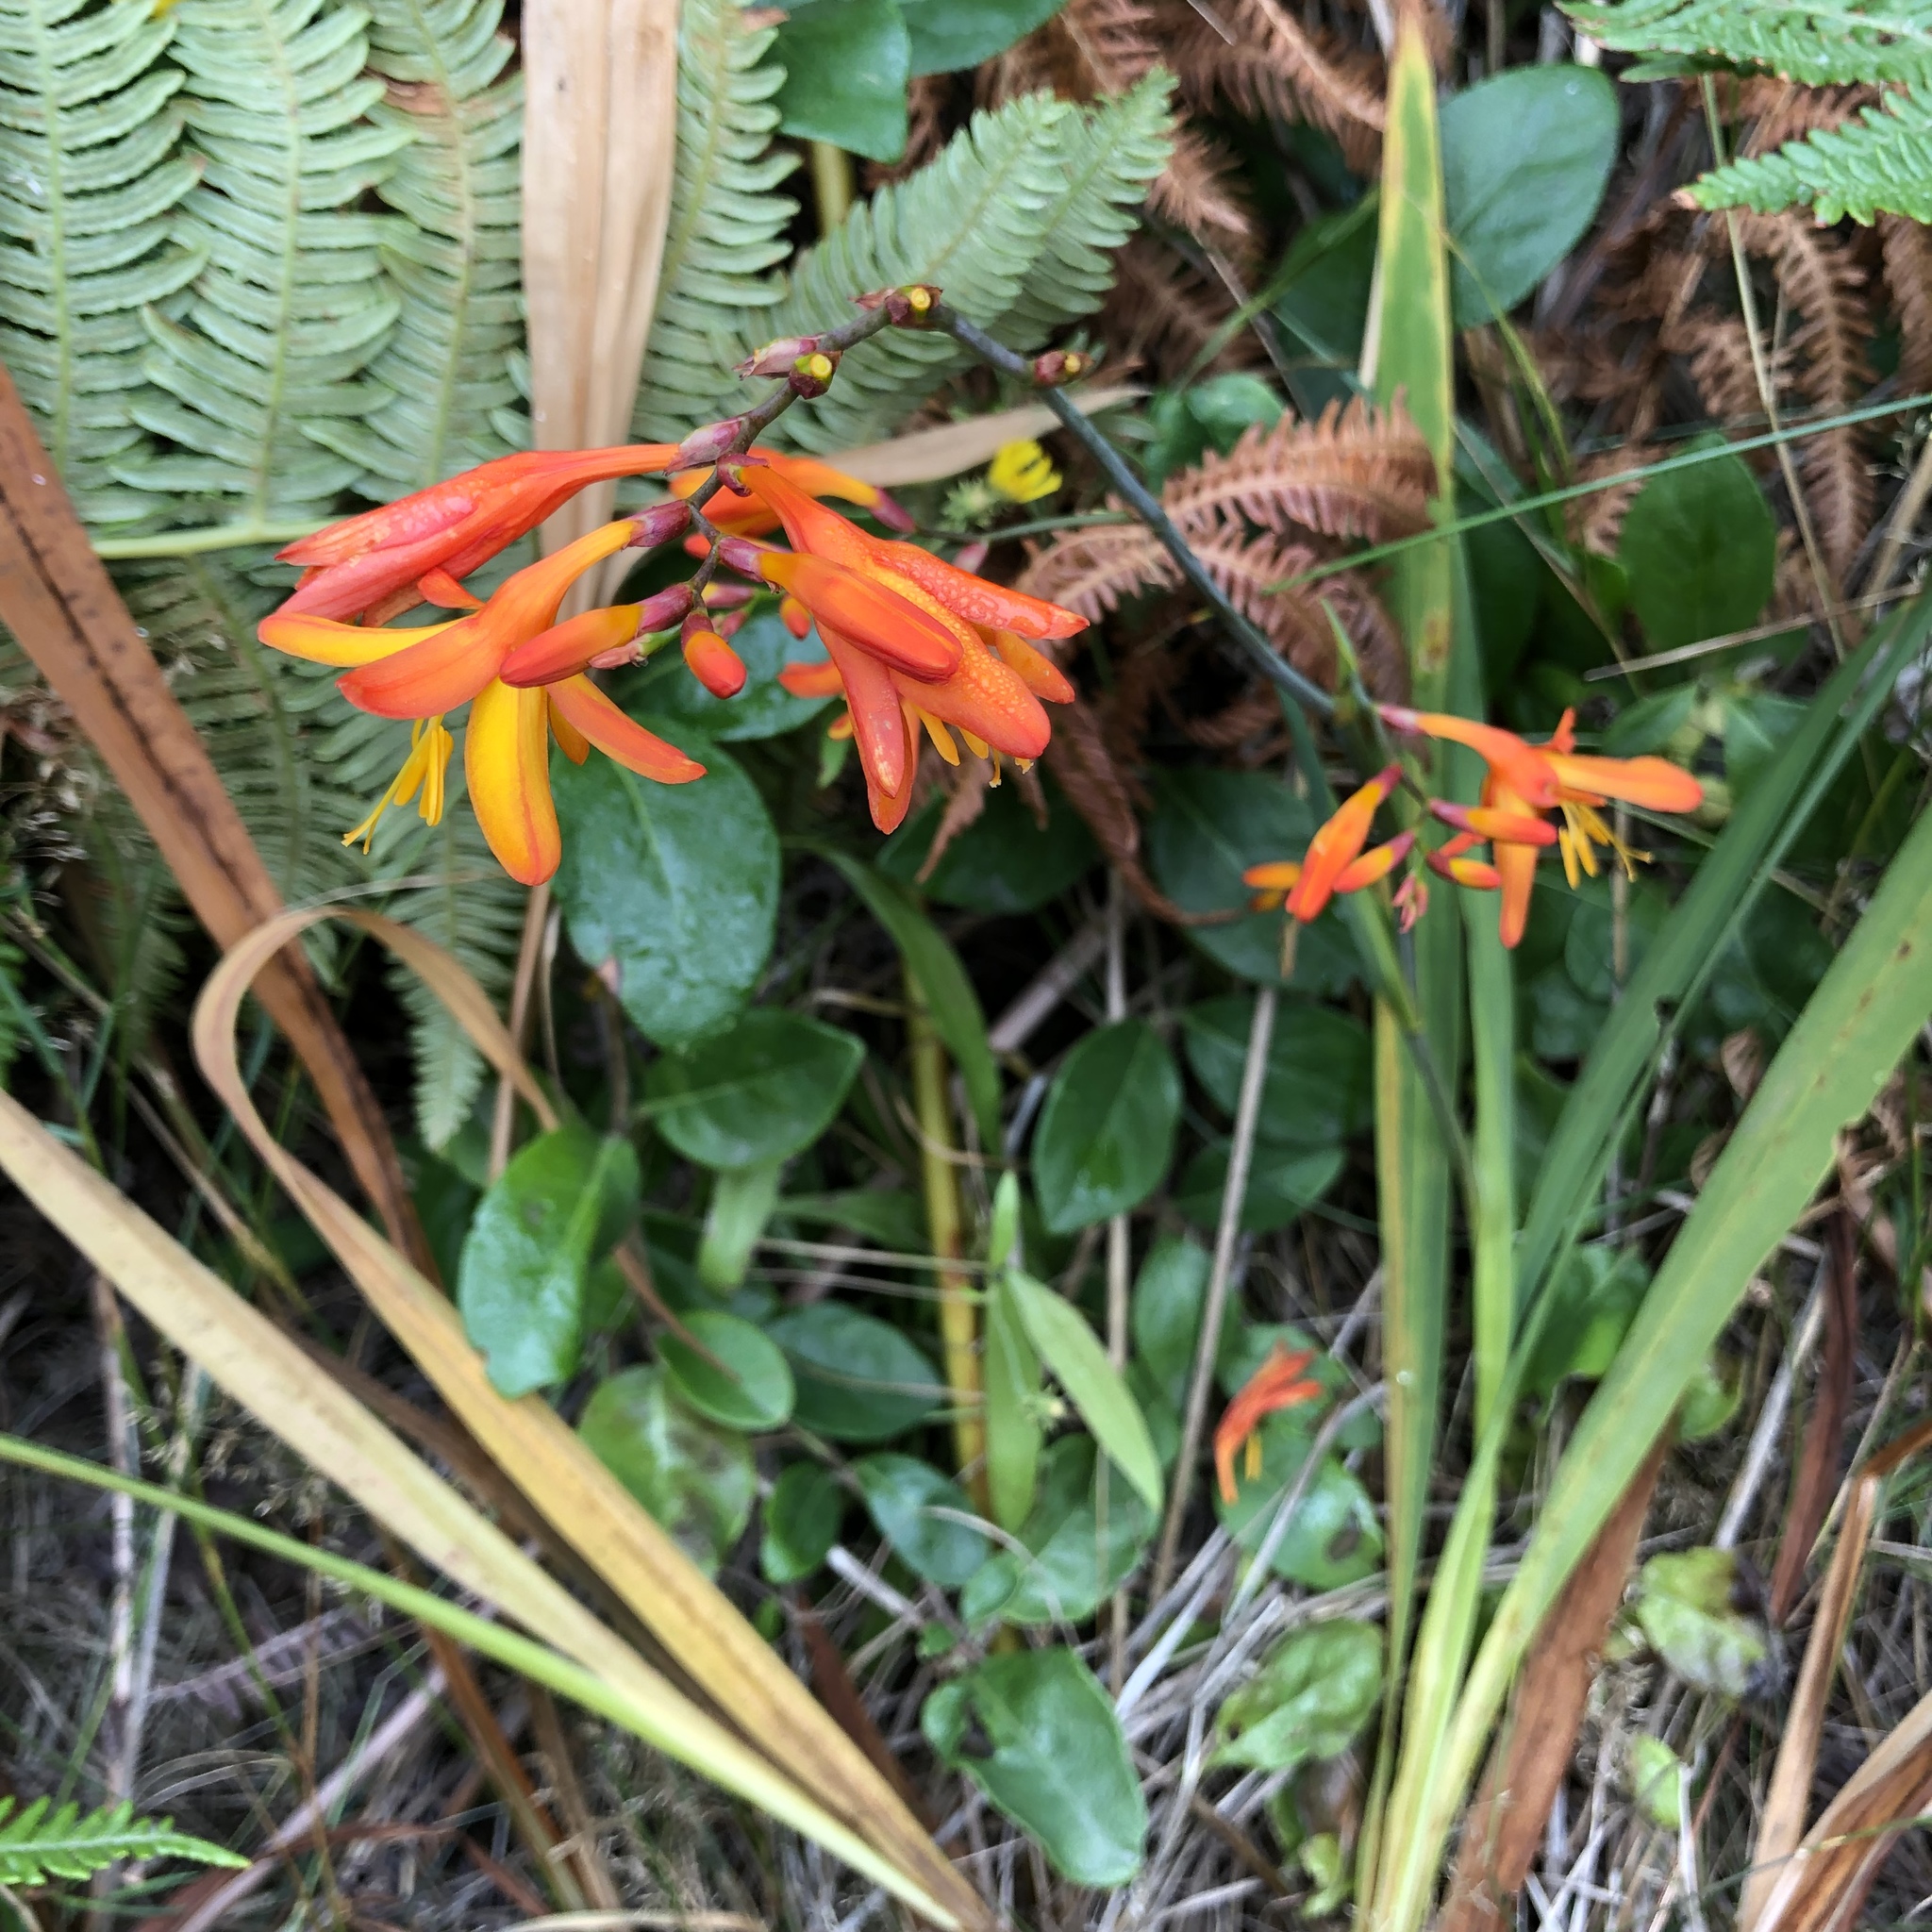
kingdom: Plantae
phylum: Tracheophyta
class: Liliopsida
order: Asparagales
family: Iridaceae
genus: Crocosmia
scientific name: Crocosmia crocosmiiflora
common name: Montbretia
